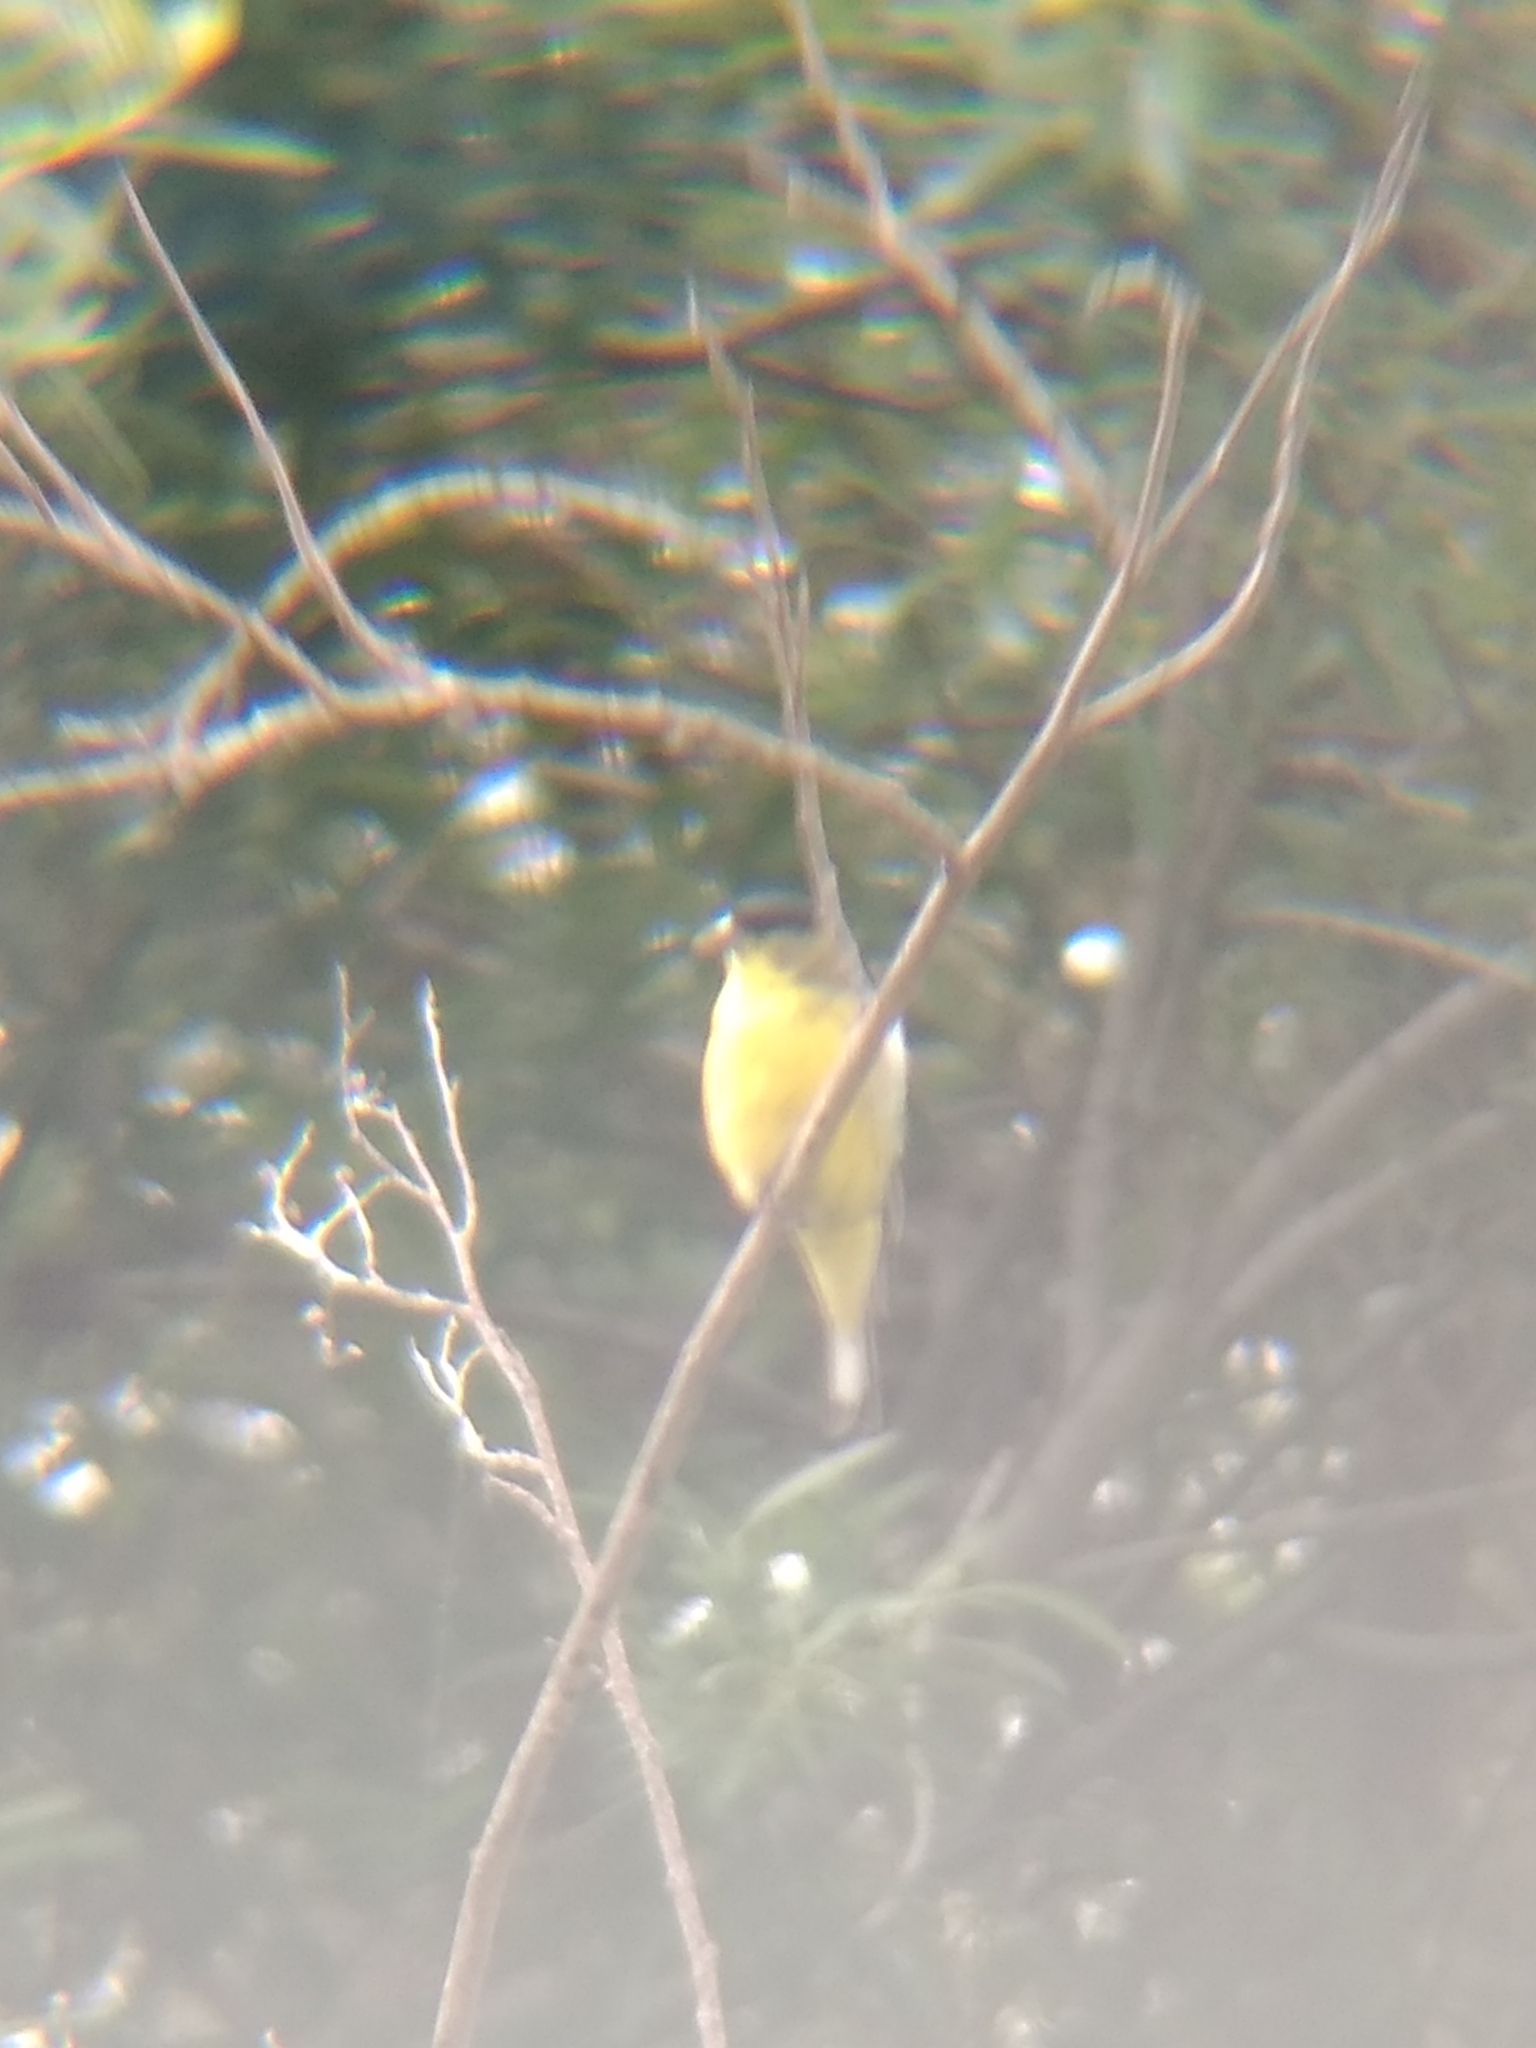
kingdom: Animalia
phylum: Chordata
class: Aves
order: Passeriformes
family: Fringillidae
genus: Spinus
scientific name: Spinus psaltria
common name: Lesser goldfinch
